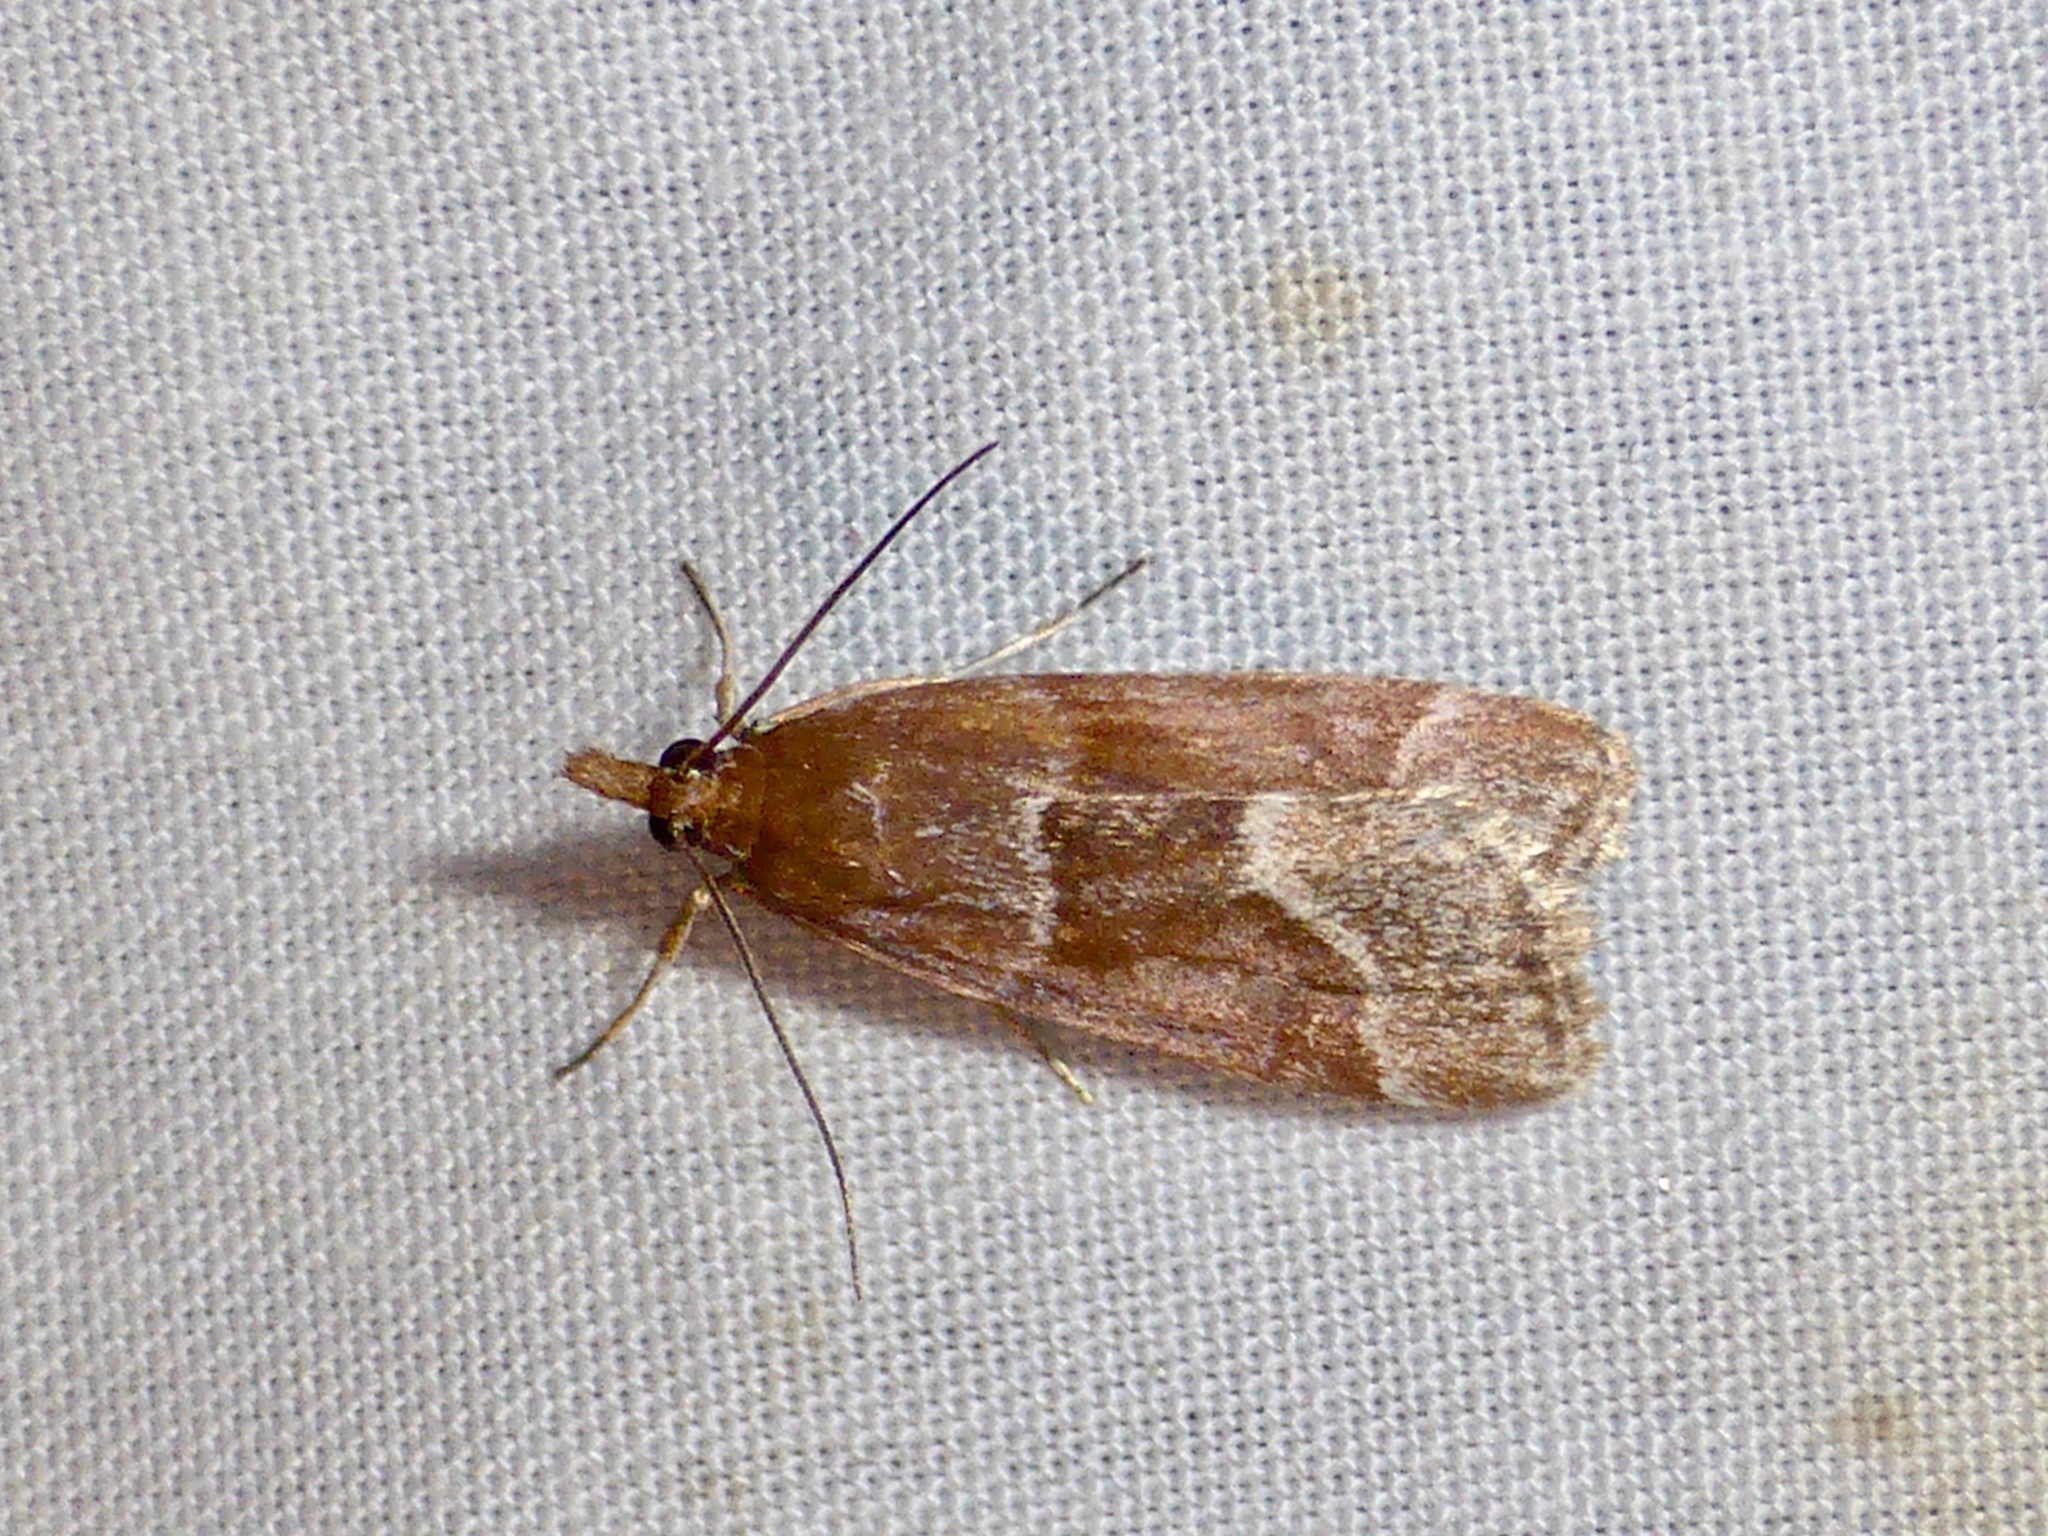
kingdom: Animalia
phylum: Arthropoda
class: Insecta
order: Lepidoptera
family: Crambidae
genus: Eudonia
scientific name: Eudonia feredayi
